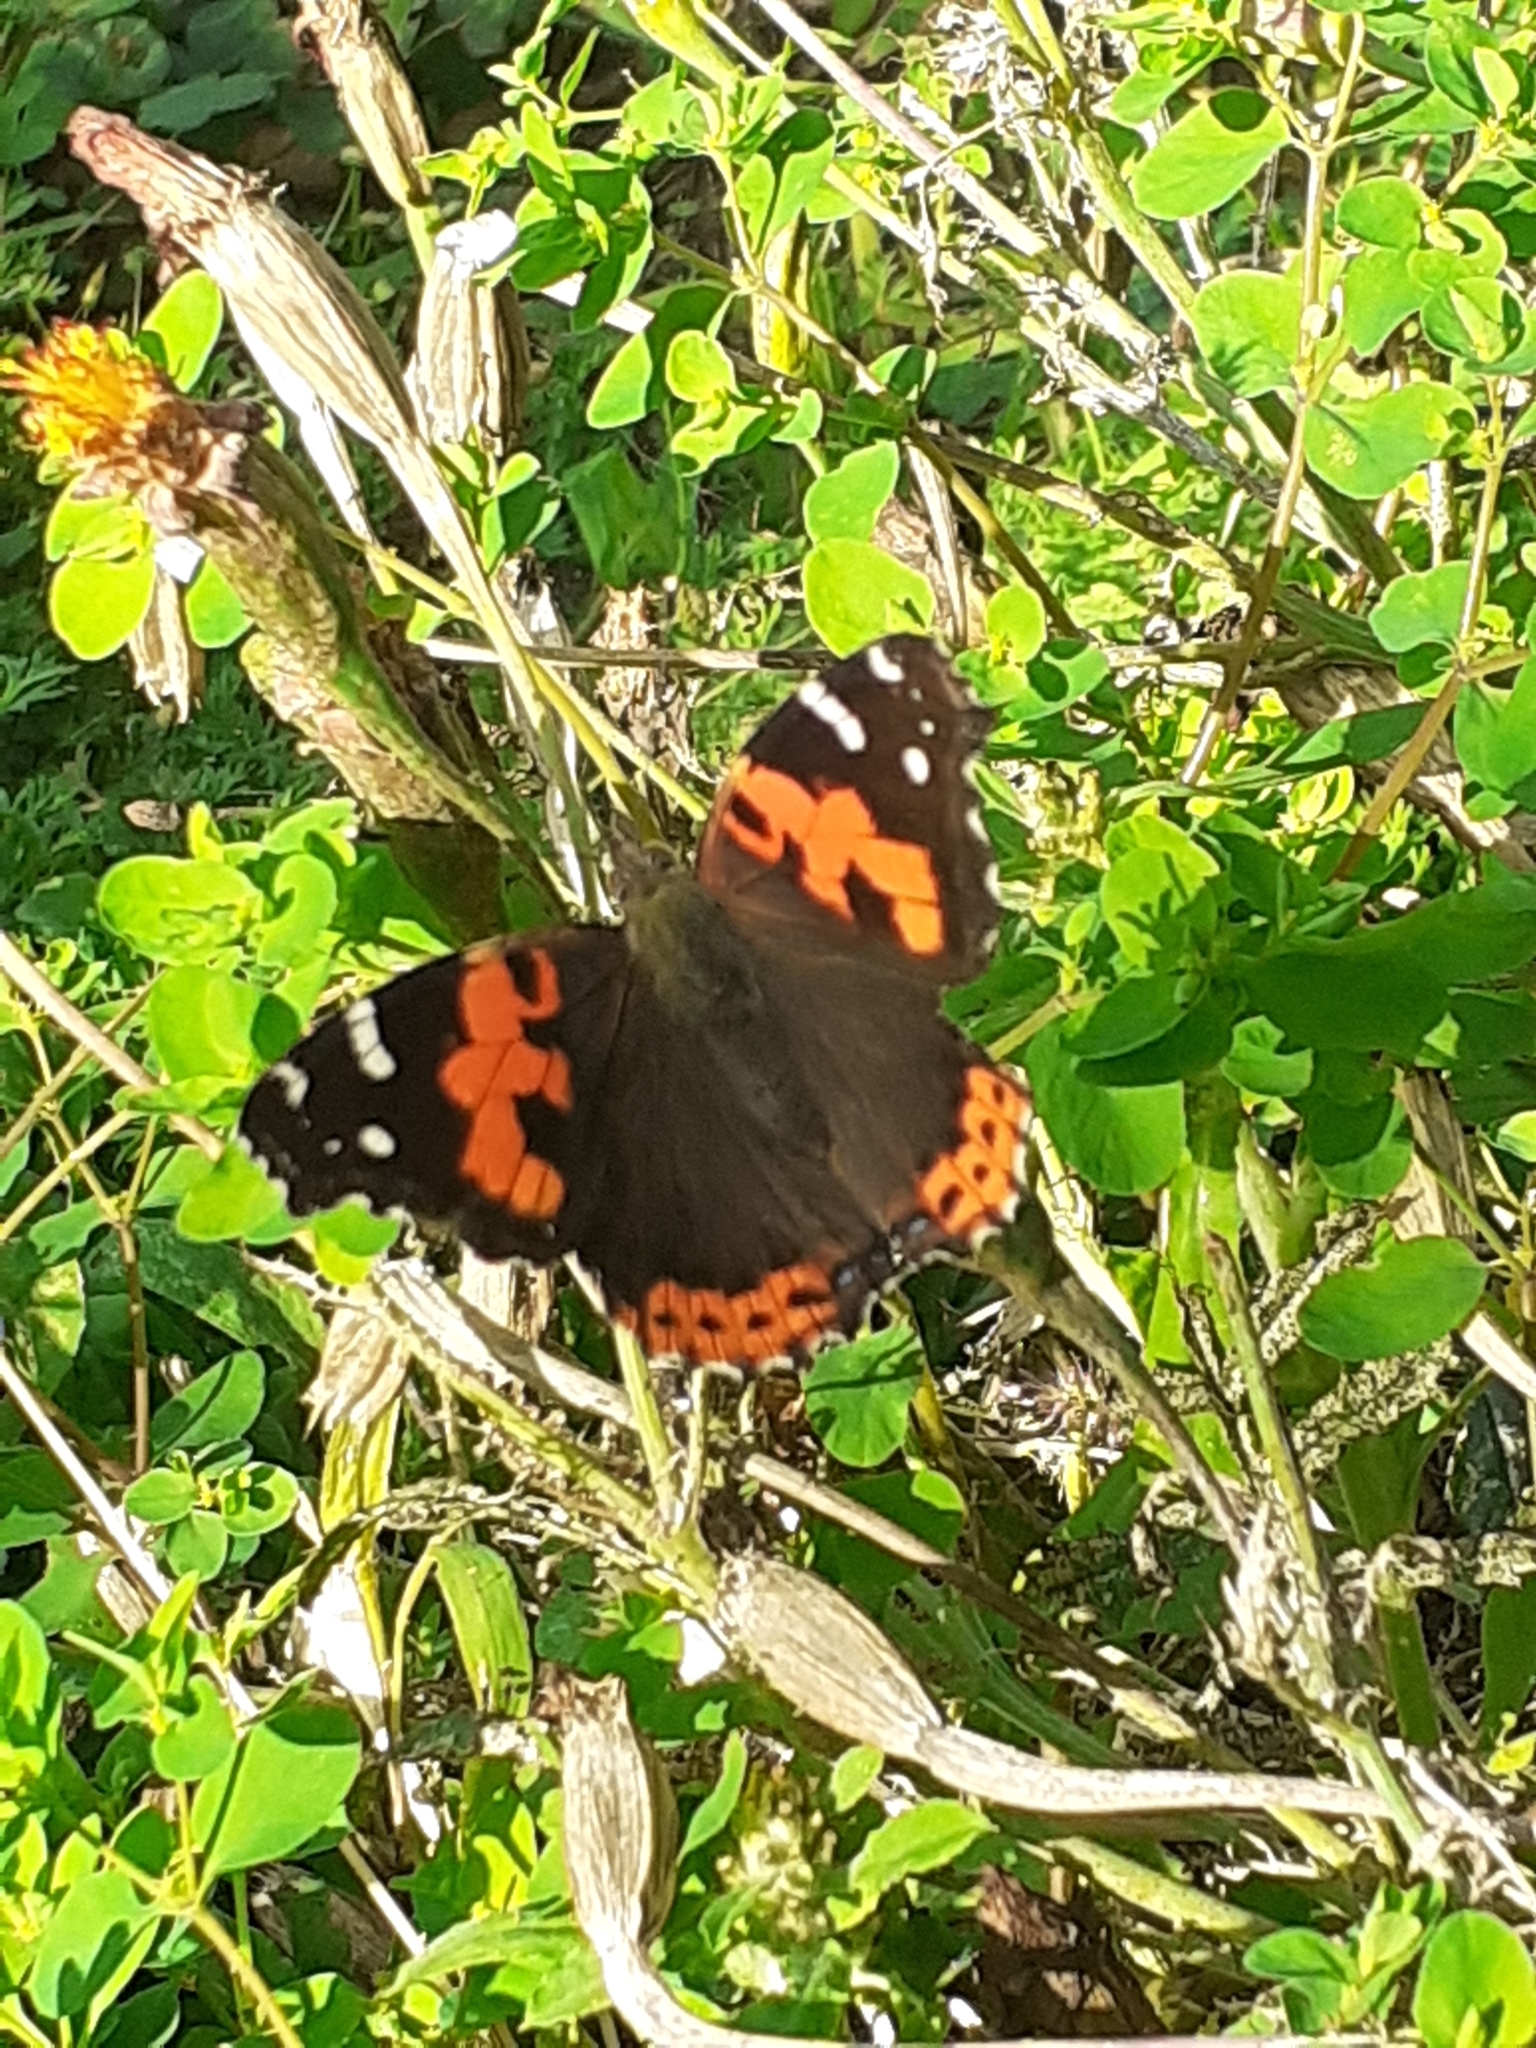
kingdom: Animalia
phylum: Arthropoda
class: Insecta
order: Lepidoptera
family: Nymphalidae
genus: Vanessa
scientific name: Vanessa vulcania
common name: Canary red admiral
